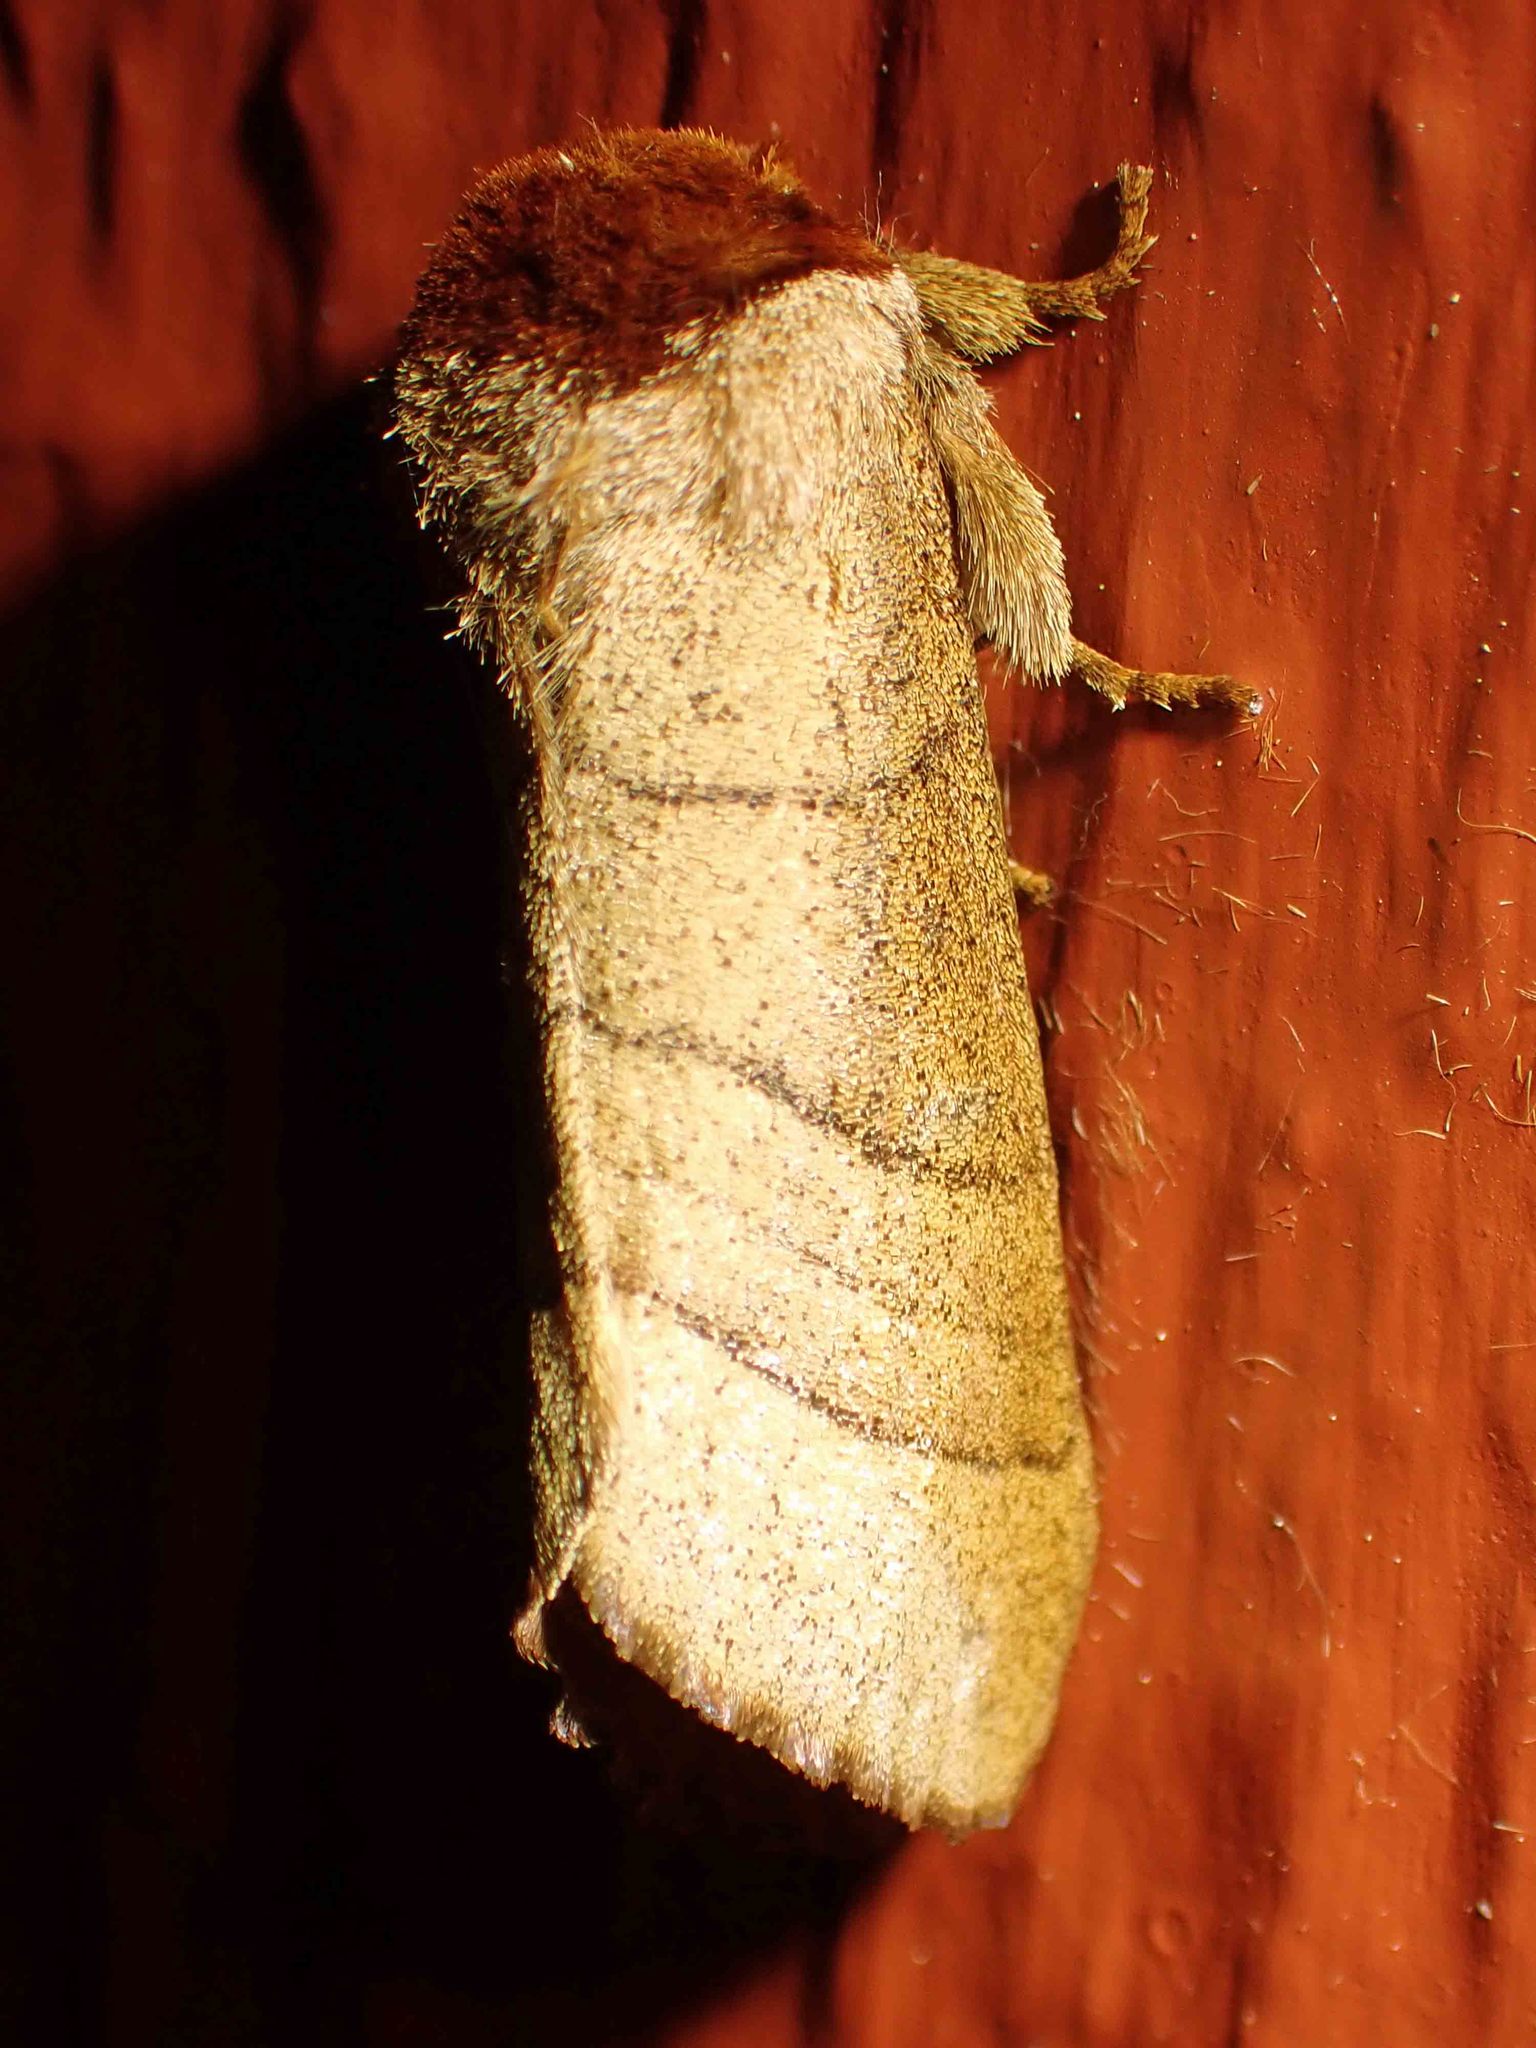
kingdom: Animalia
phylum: Arthropoda
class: Insecta
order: Lepidoptera
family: Notodontidae
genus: Datana
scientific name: Datana ministra
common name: Yellow-necked caterpillar moth
